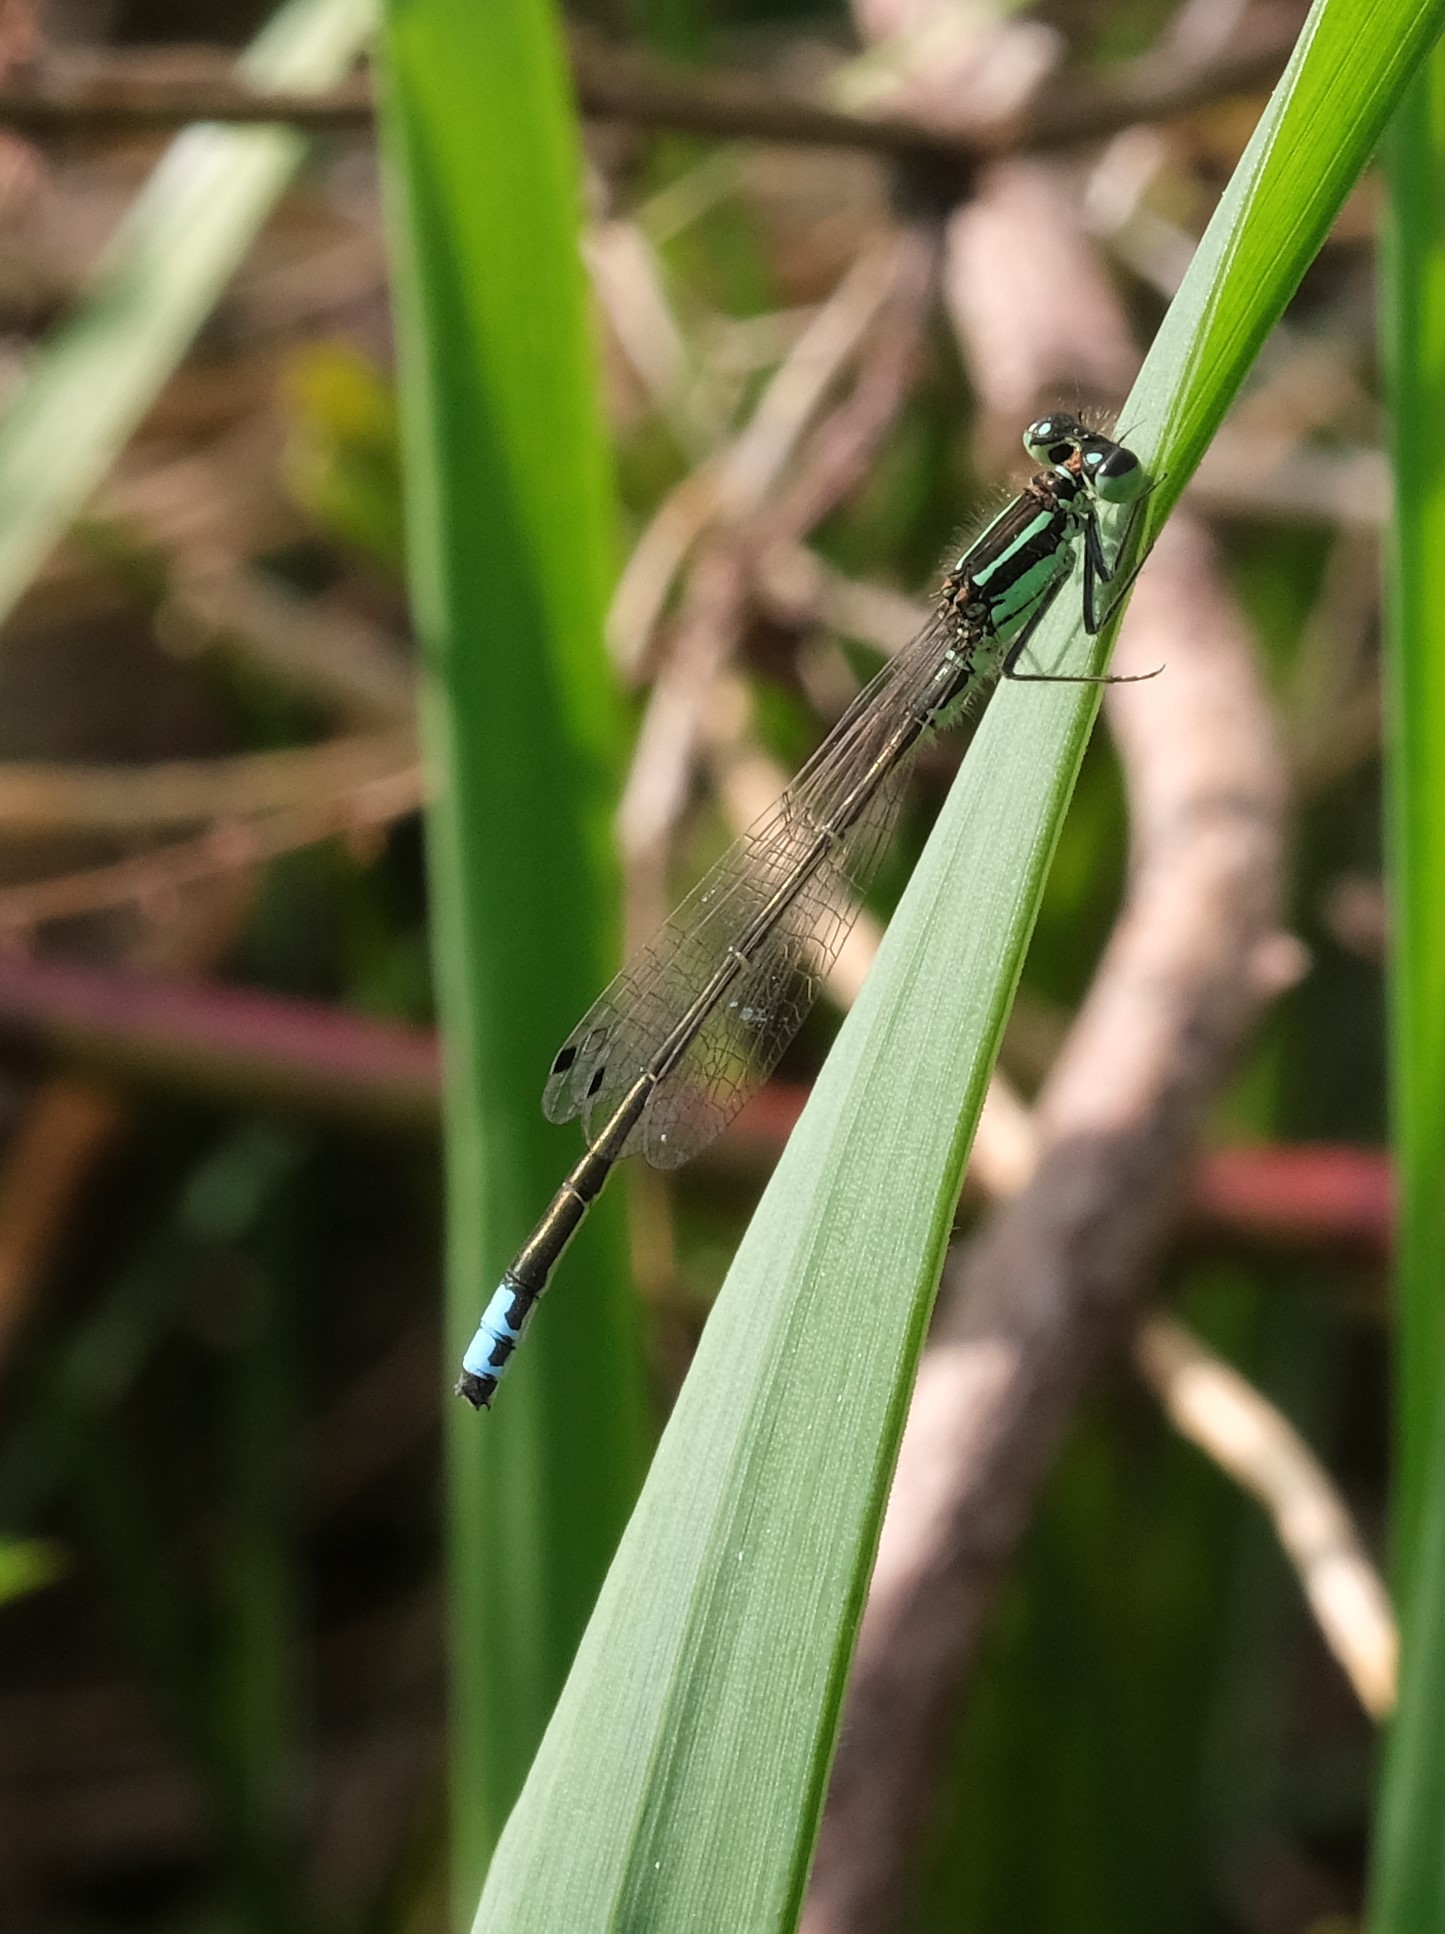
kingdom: Animalia
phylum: Arthropoda
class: Insecta
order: Odonata
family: Coenagrionidae
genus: Ischnura
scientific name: Ischnura verticalis
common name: Eastern forktail
